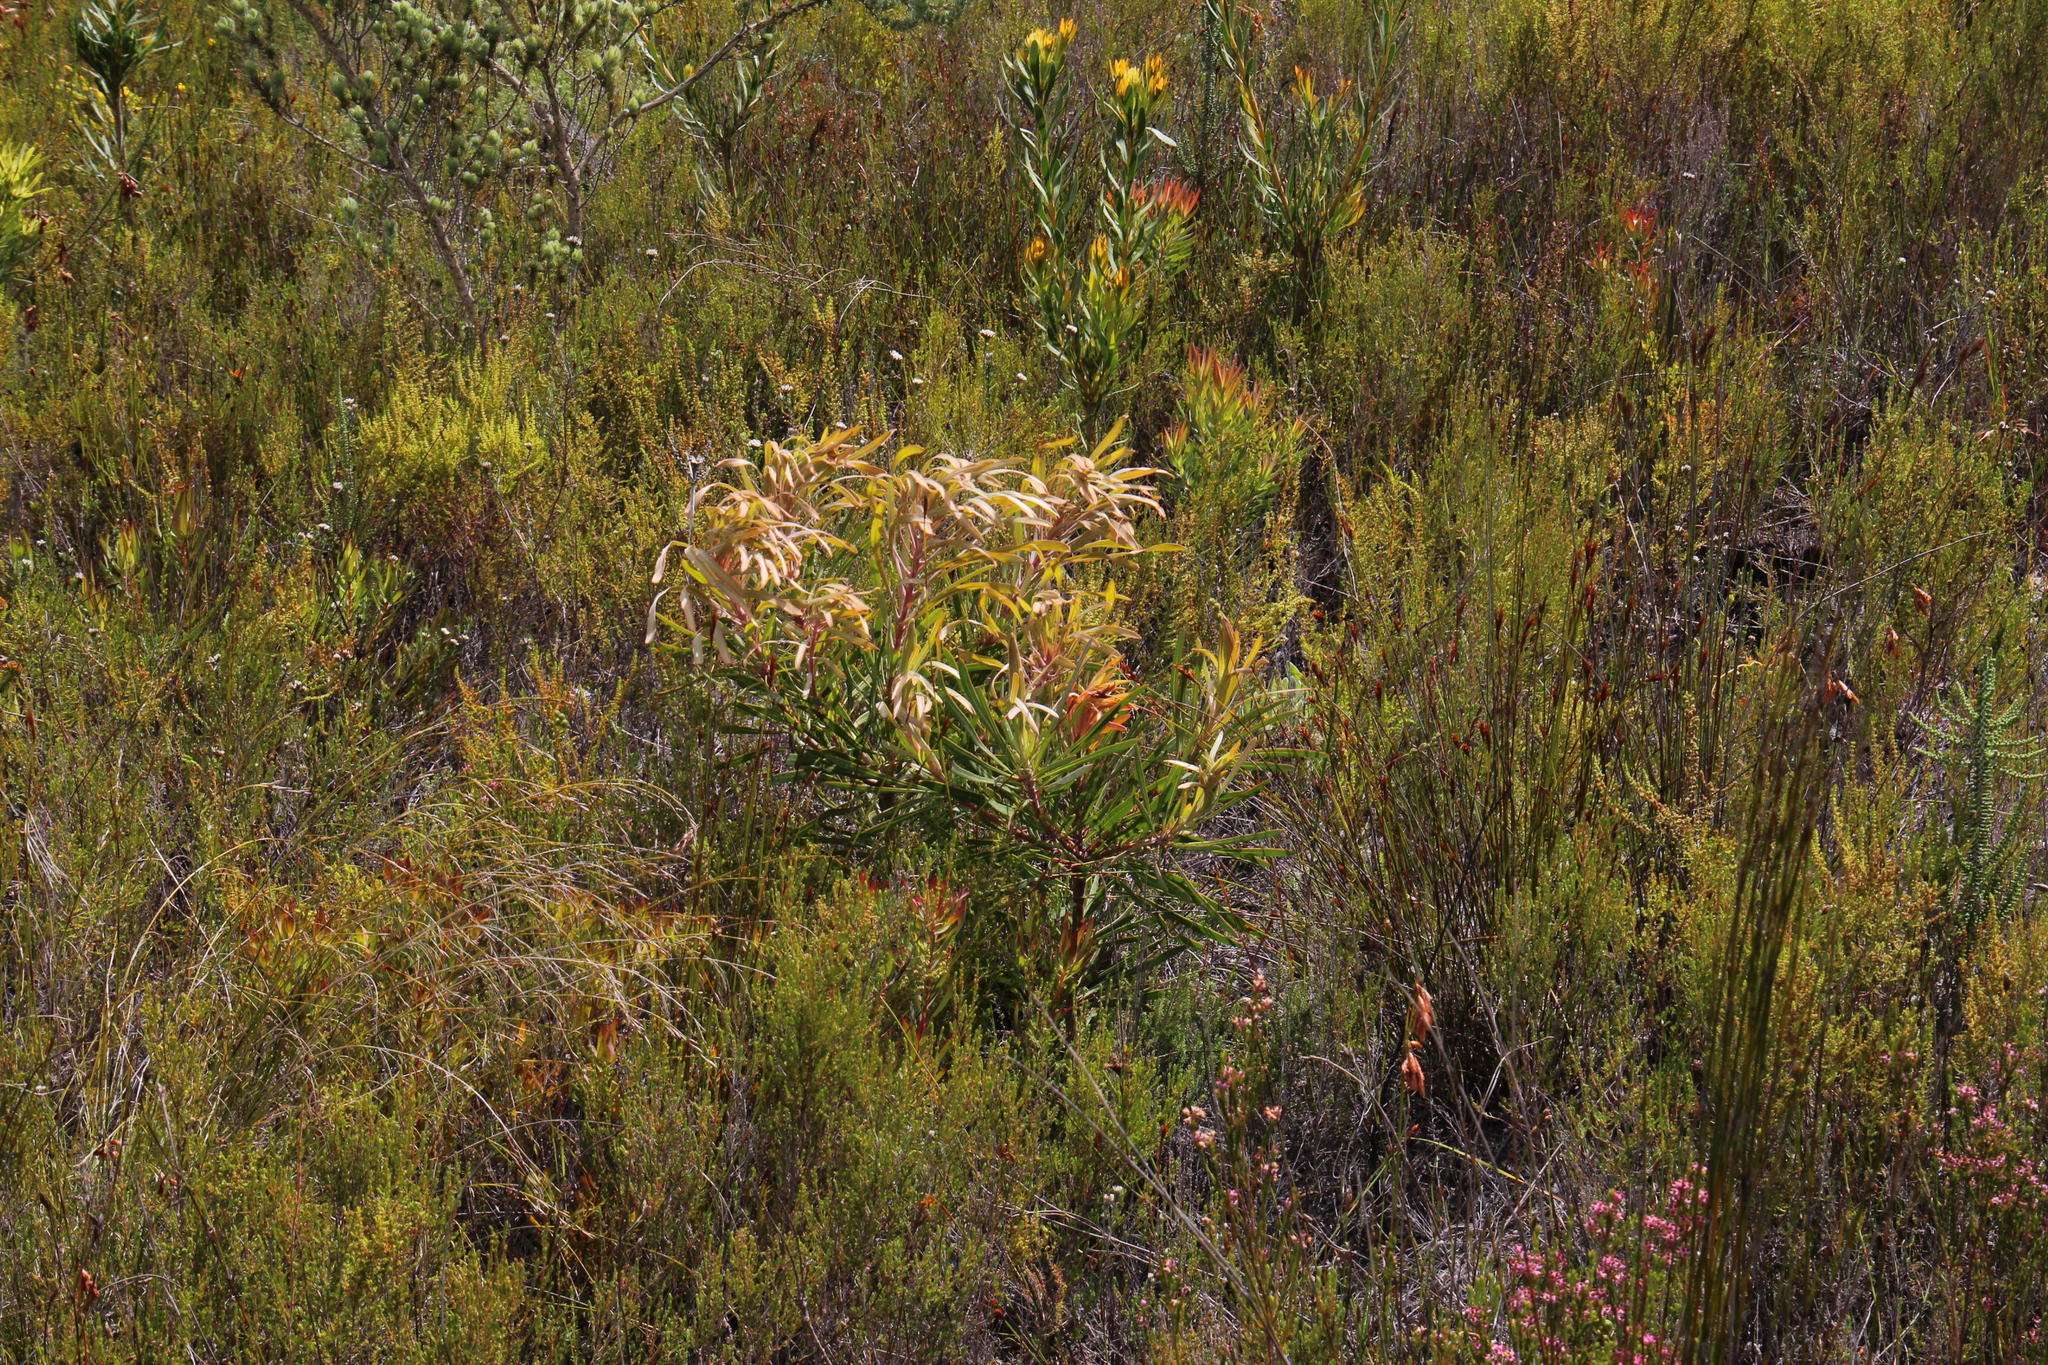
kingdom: Plantae
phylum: Tracheophyta
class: Magnoliopsida
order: Proteales
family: Proteaceae
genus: Protea
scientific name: Protea longifolia
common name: Long-leaf sugarbush
